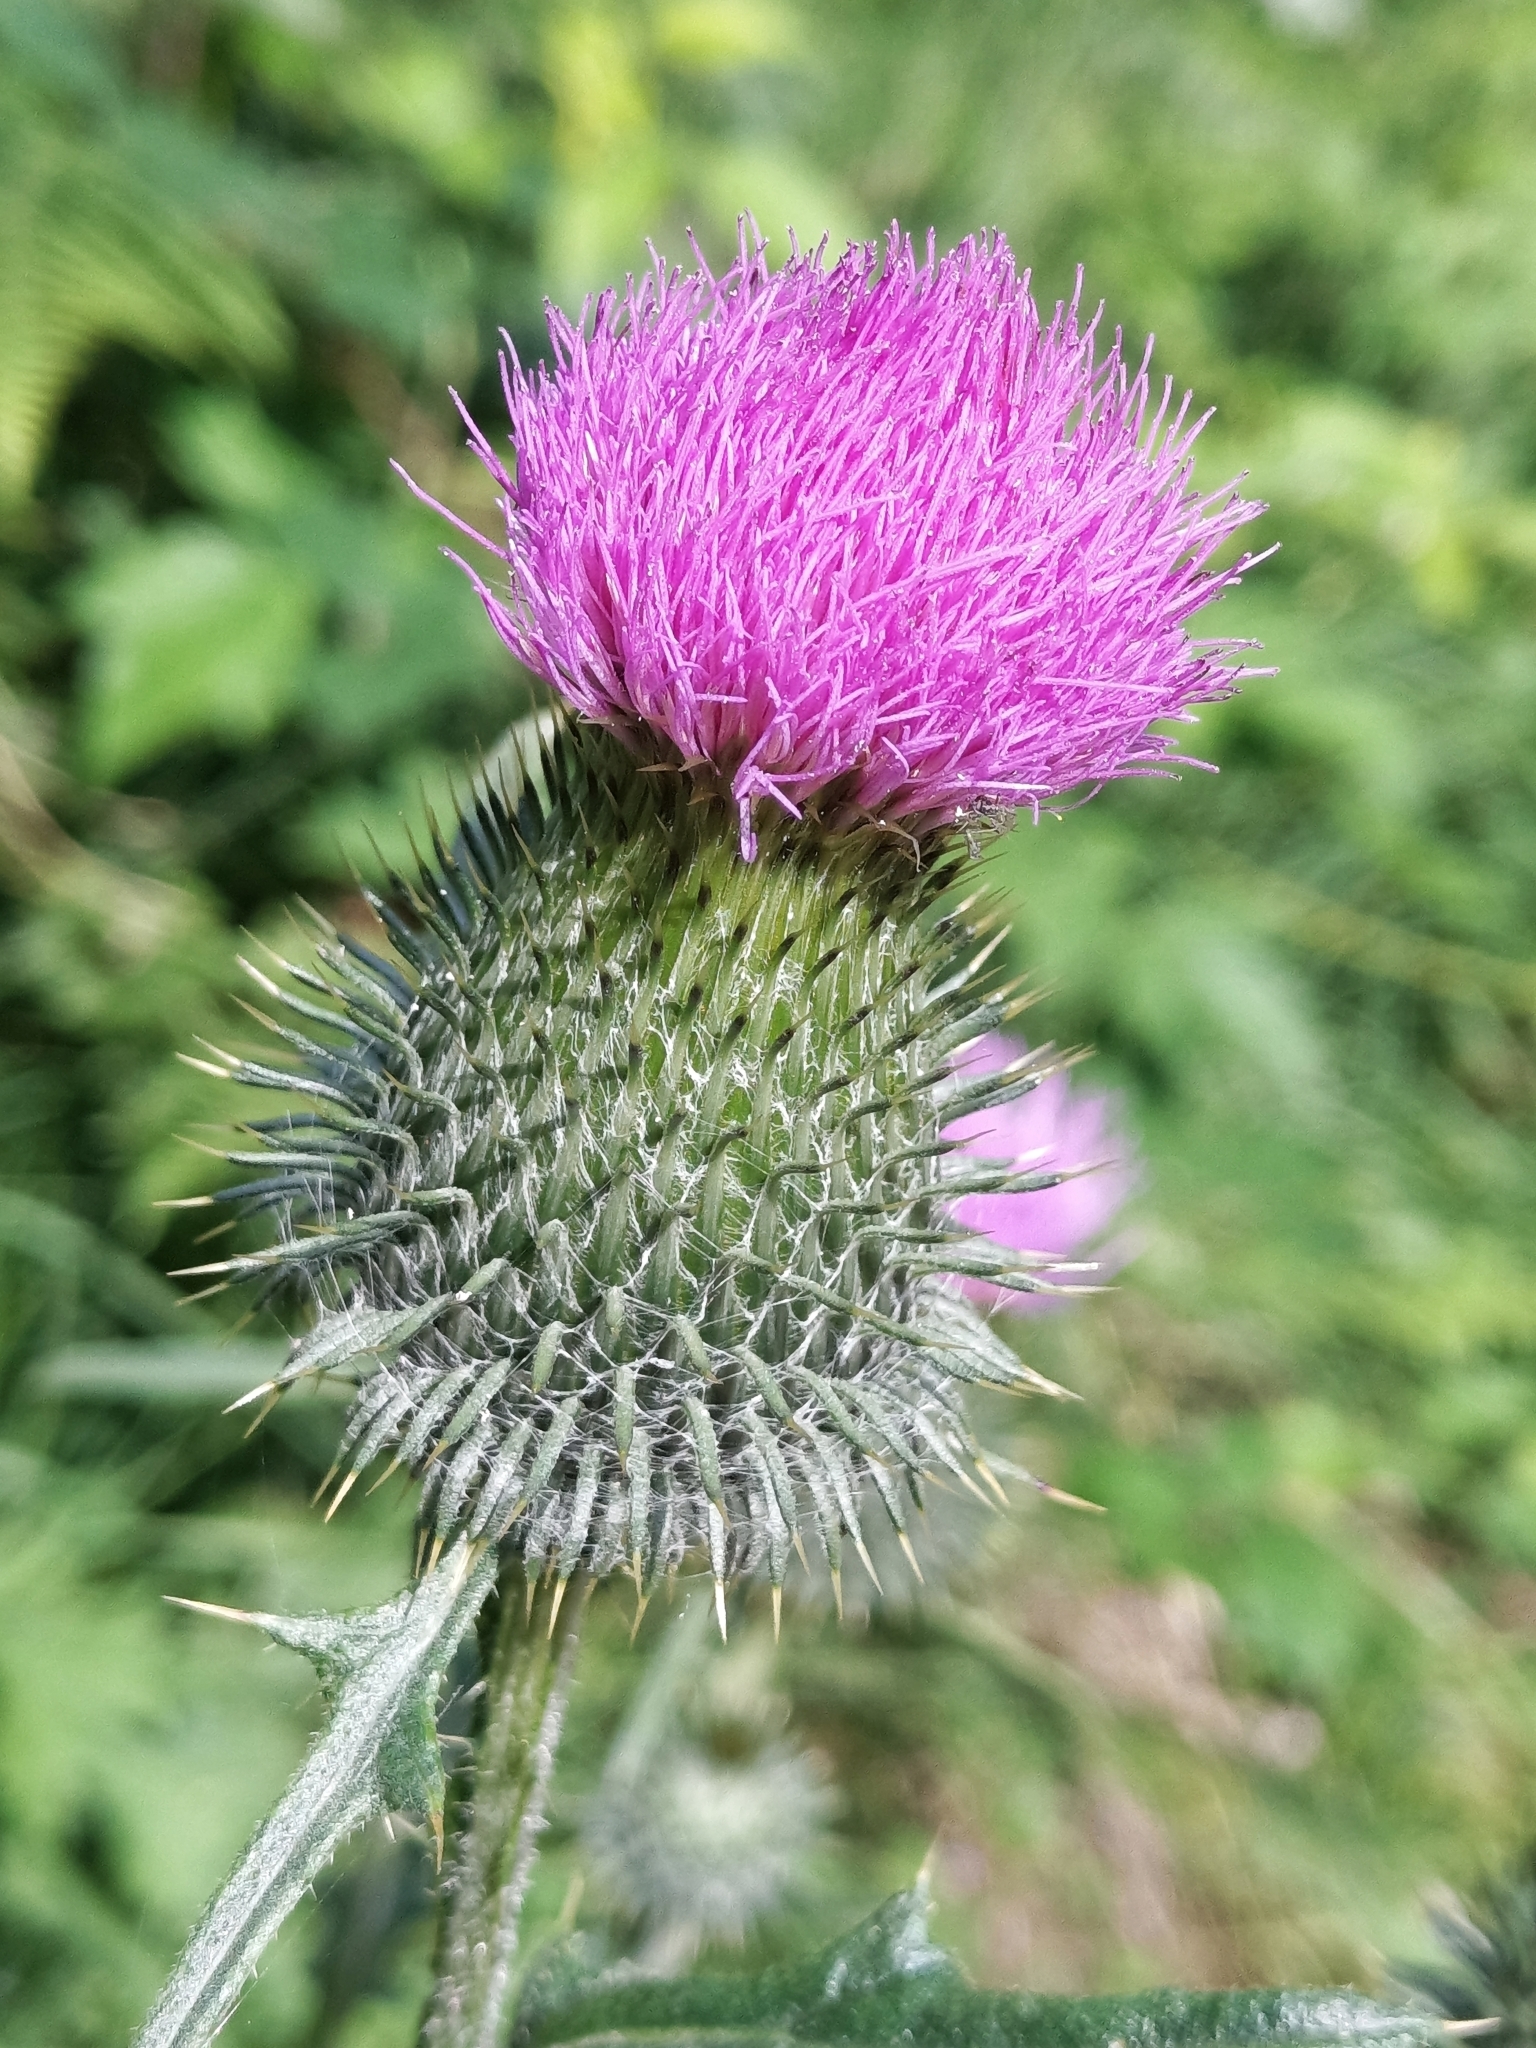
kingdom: Plantae
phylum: Tracheophyta
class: Magnoliopsida
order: Asterales
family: Asteraceae
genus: Cirsium
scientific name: Cirsium vulgare
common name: Bull thistle
